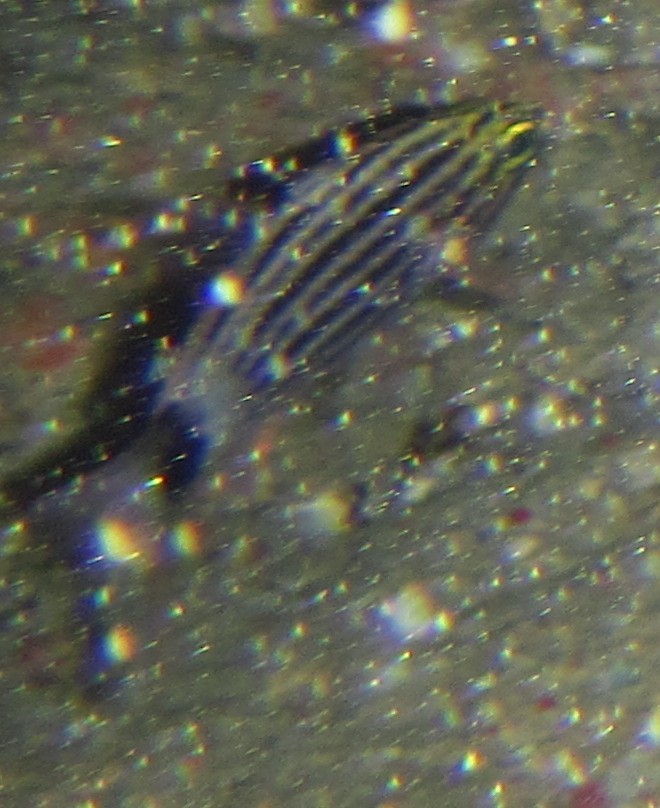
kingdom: Animalia
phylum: Chordata
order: Perciformes
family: Apogonidae
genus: Cheilodipterus
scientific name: Cheilodipterus macrodon
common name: Eight-lined cardinalfish
